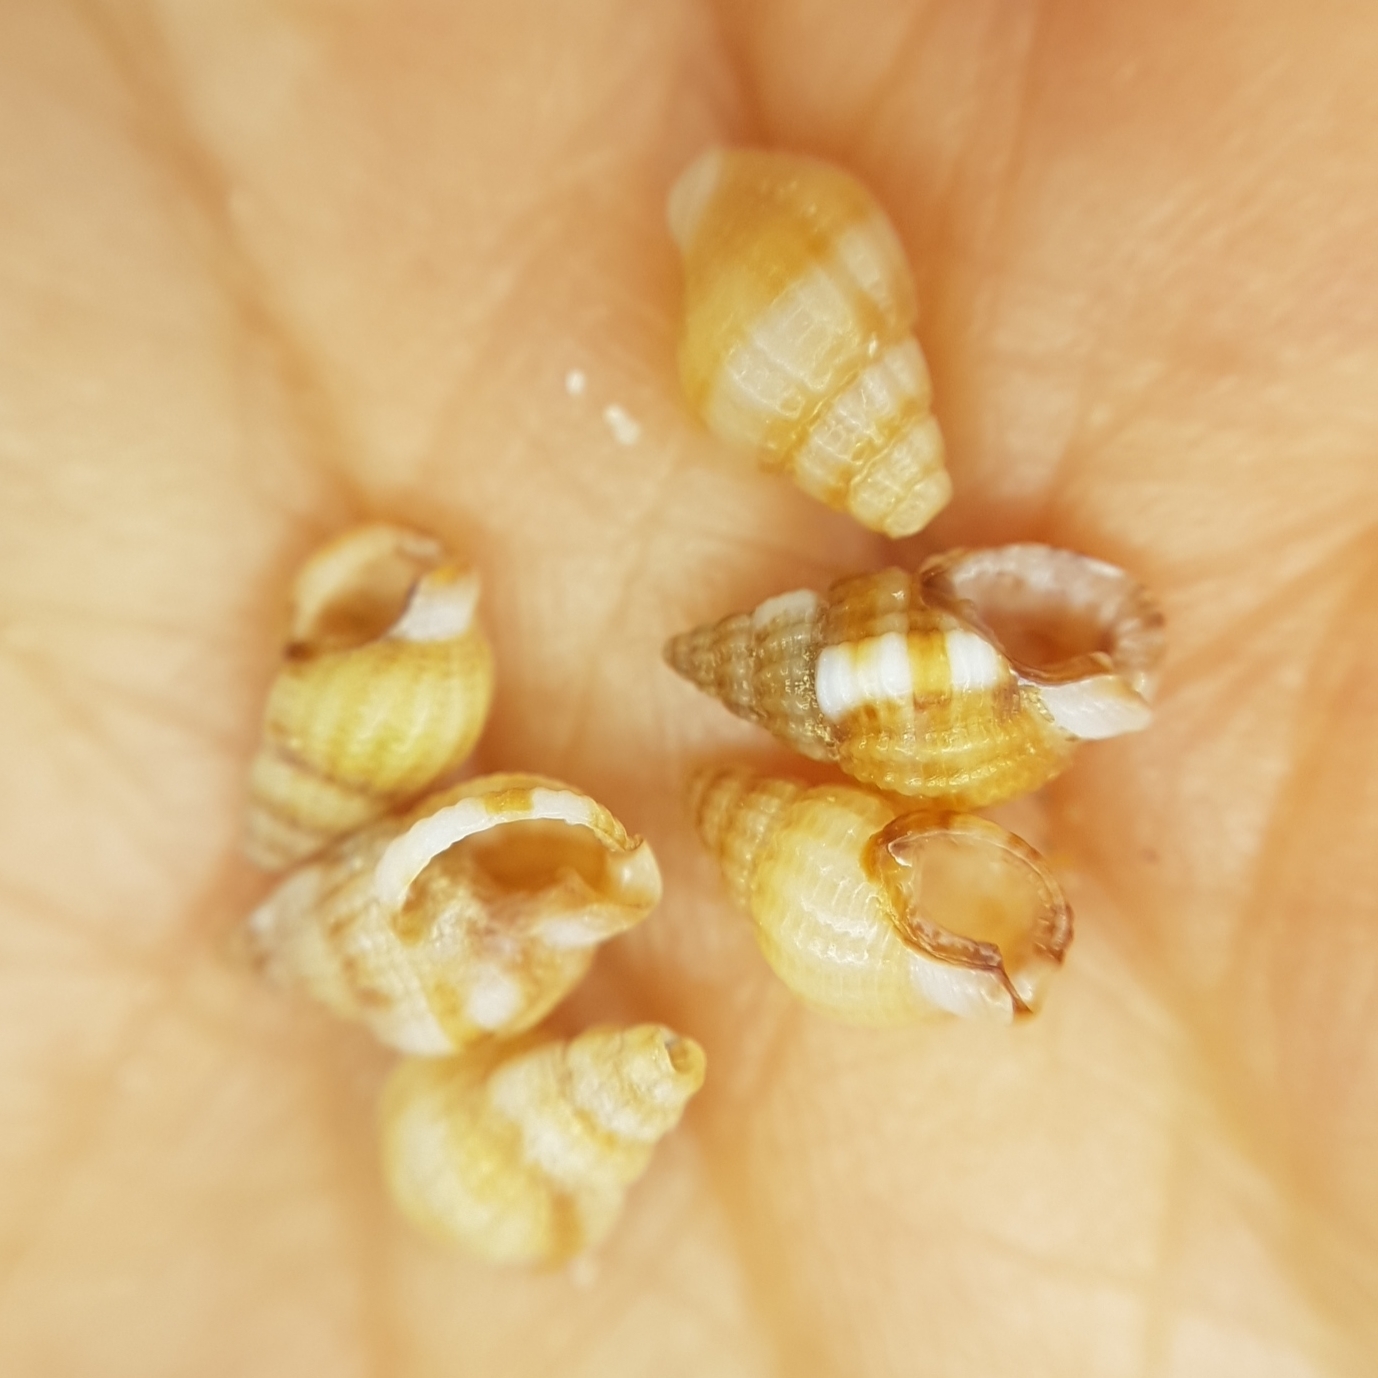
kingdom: Animalia
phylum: Mollusca
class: Gastropoda
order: Neogastropoda
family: Nassariidae
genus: Tritia
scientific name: Tritia varicosa
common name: Small dog whelk
